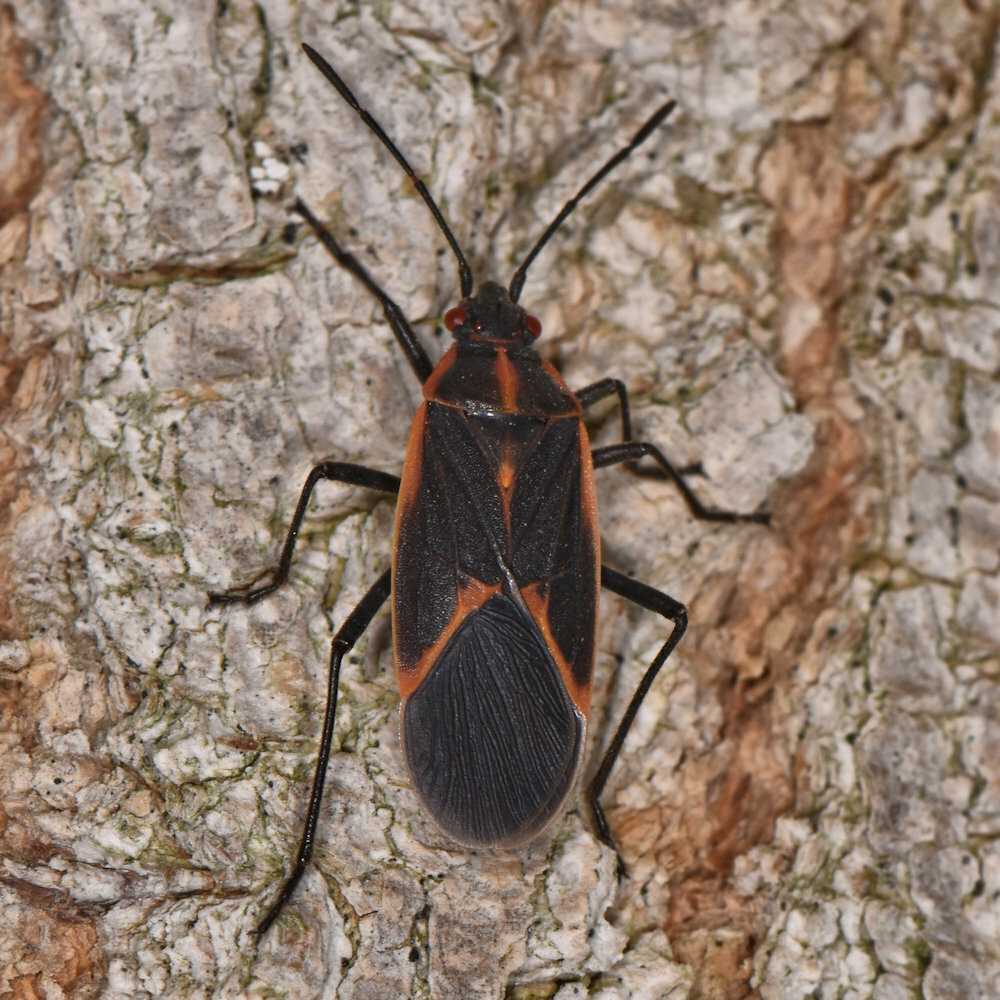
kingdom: Animalia
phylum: Arthropoda
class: Insecta
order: Hemiptera
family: Rhopalidae
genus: Boisea
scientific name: Boisea trivittata
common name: Boxelder bug
